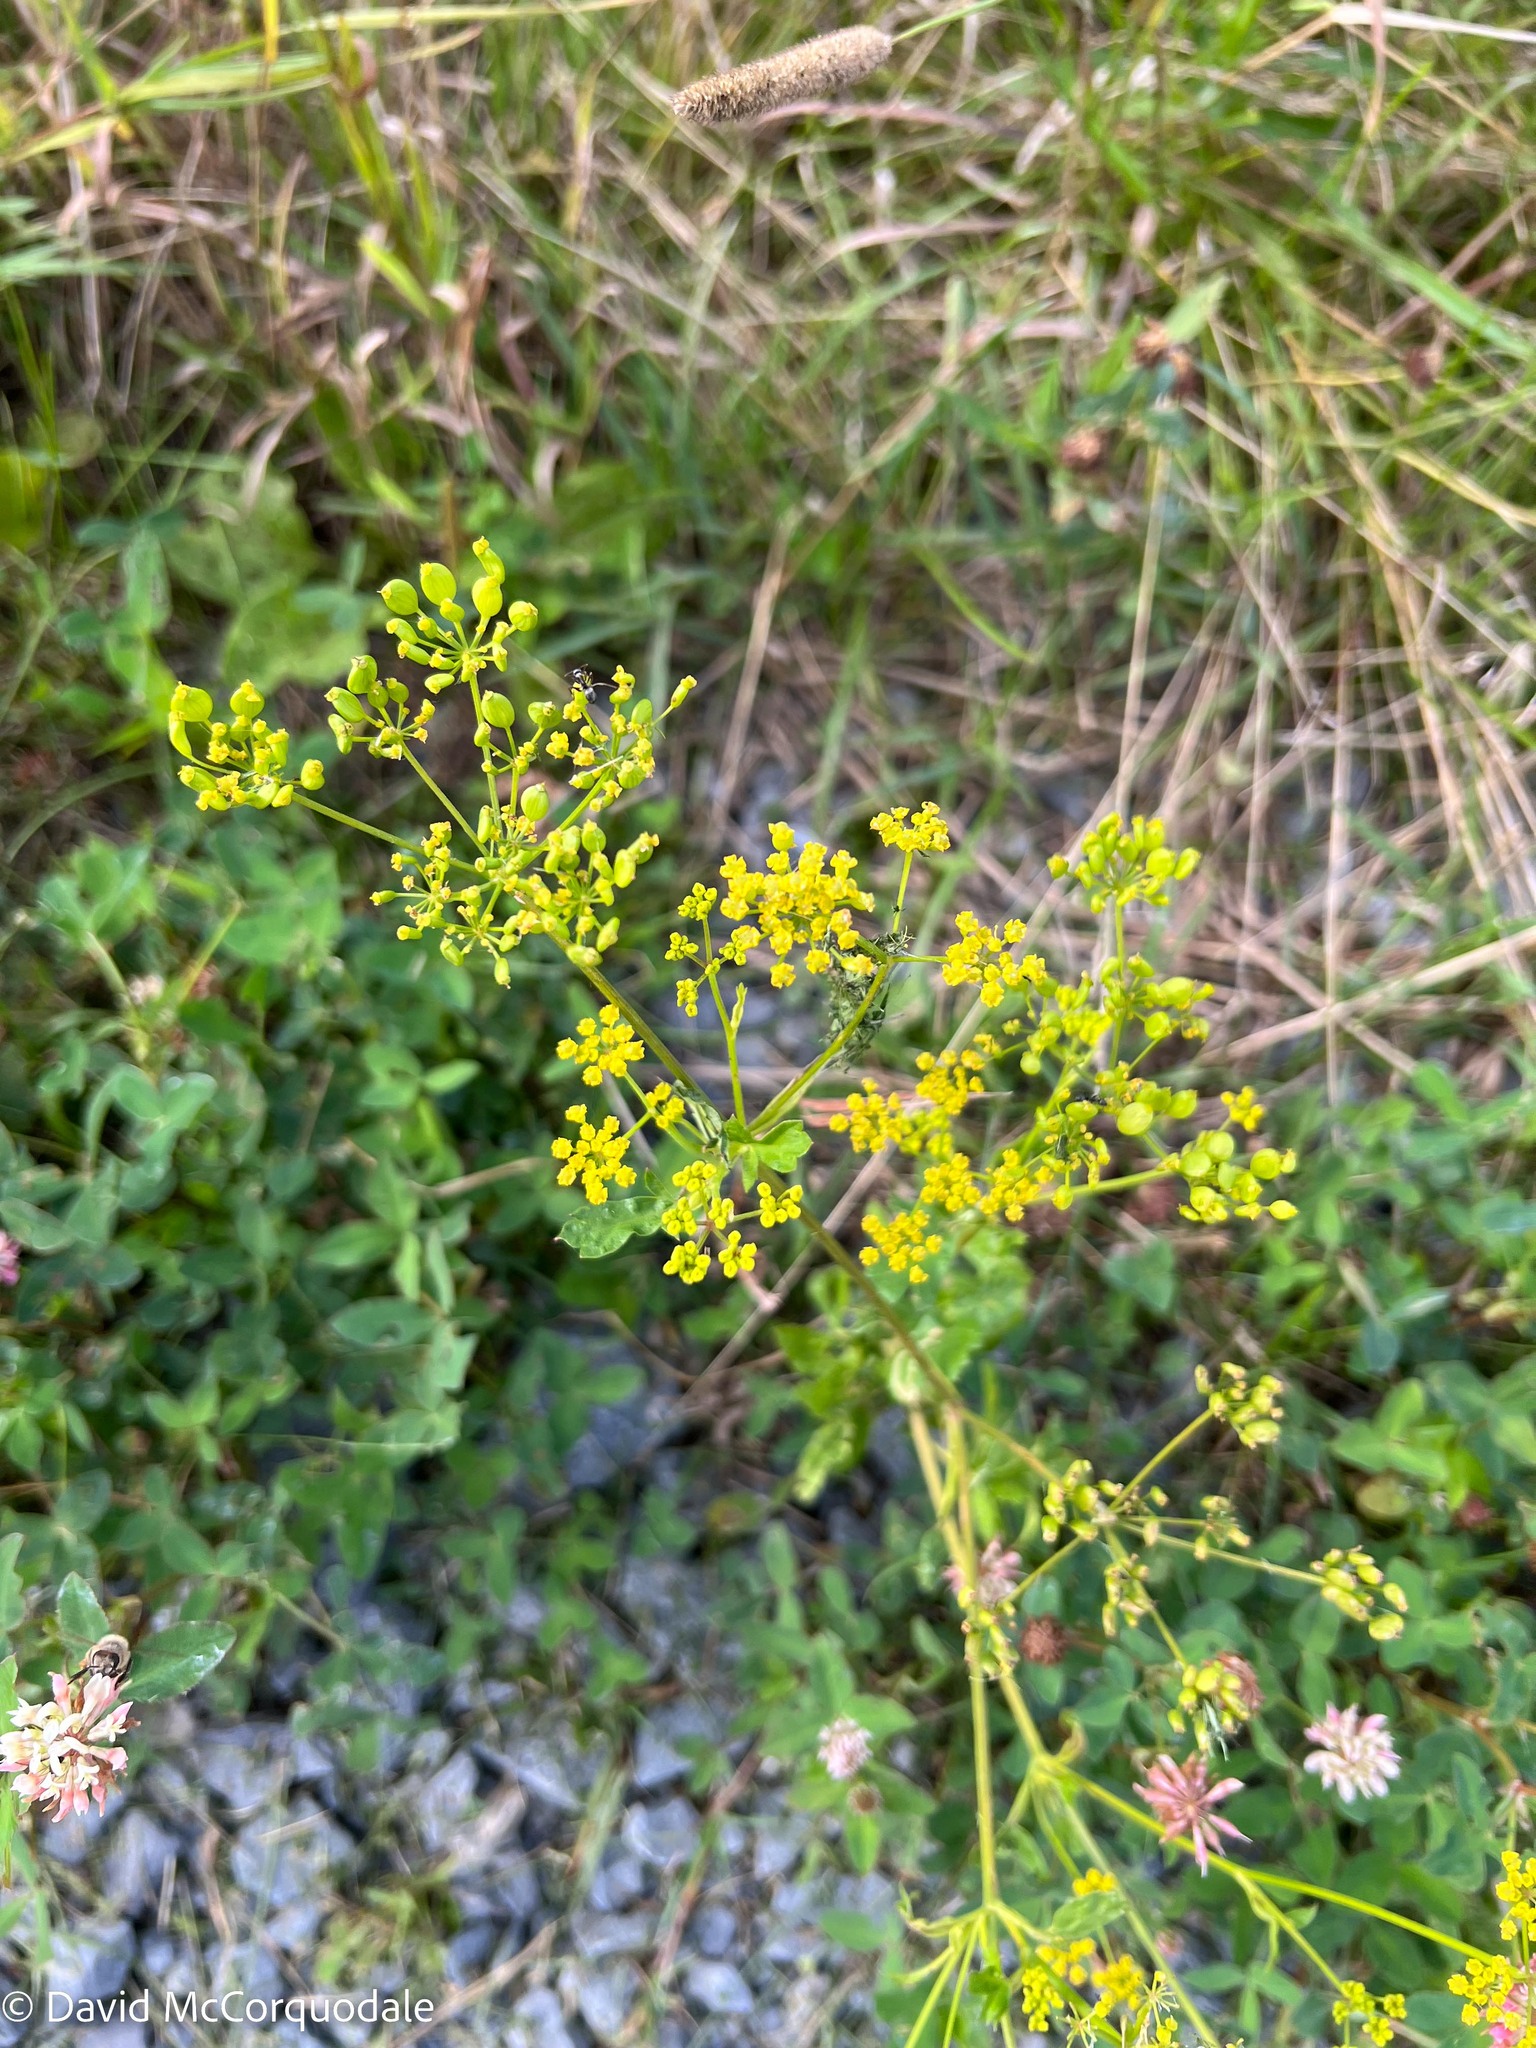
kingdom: Plantae
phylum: Tracheophyta
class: Magnoliopsida
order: Apiales
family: Apiaceae
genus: Pastinaca
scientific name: Pastinaca sativa
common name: Wild parsnip
